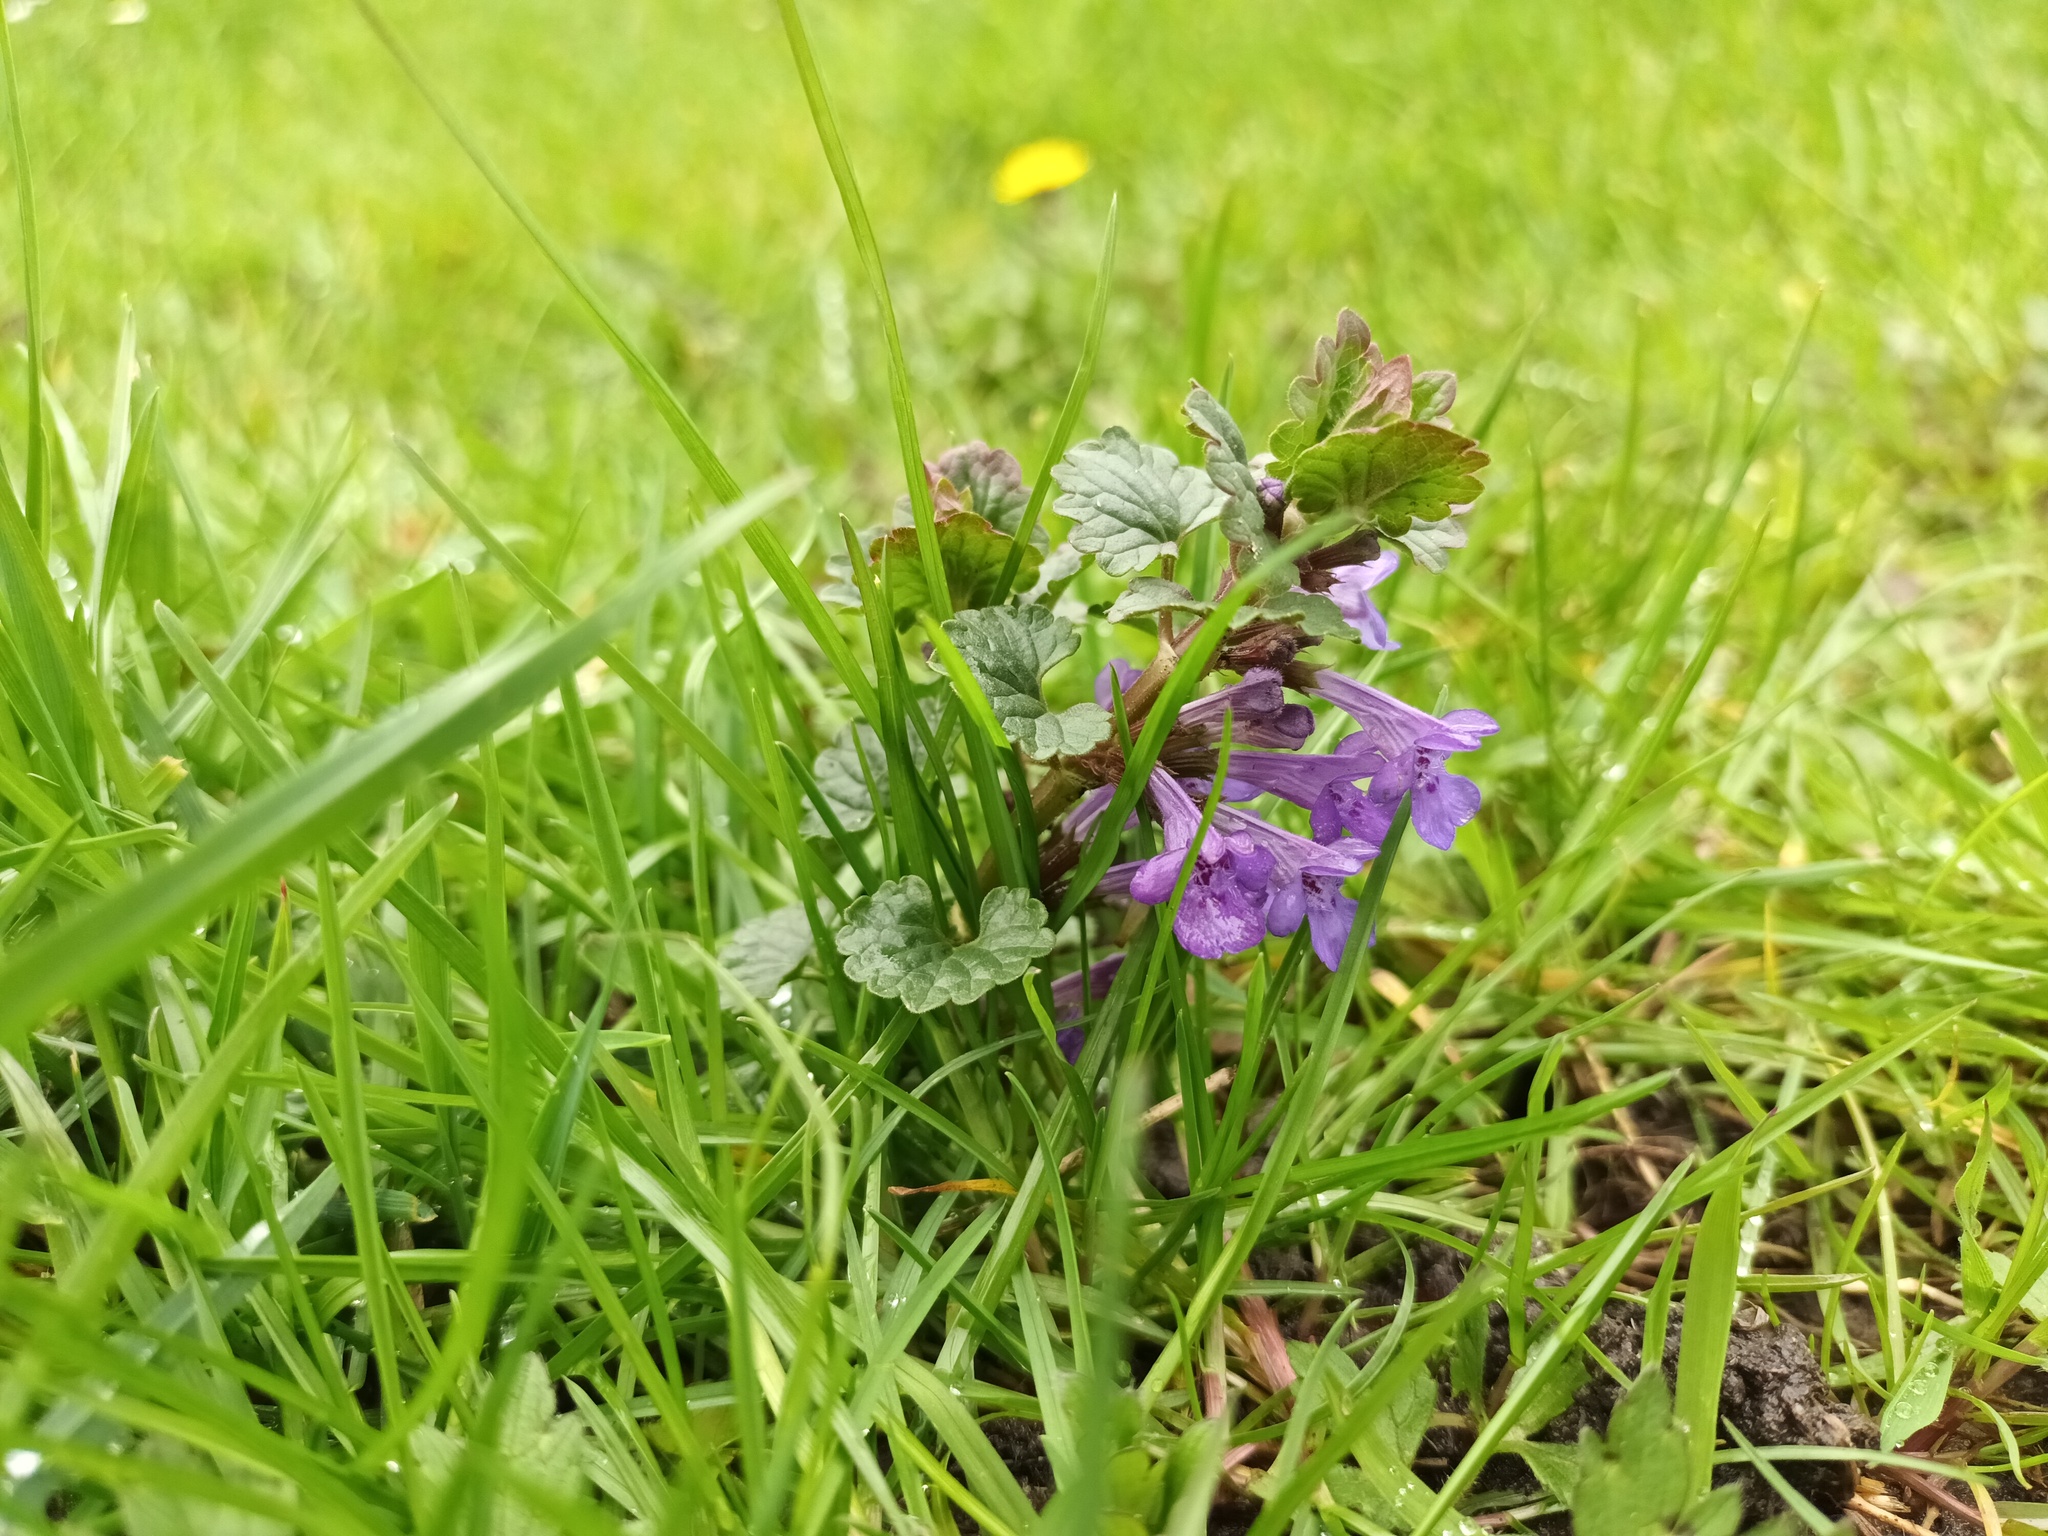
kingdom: Plantae
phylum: Tracheophyta
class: Magnoliopsida
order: Lamiales
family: Lamiaceae
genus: Glechoma
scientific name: Glechoma hederacea
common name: Ground ivy
